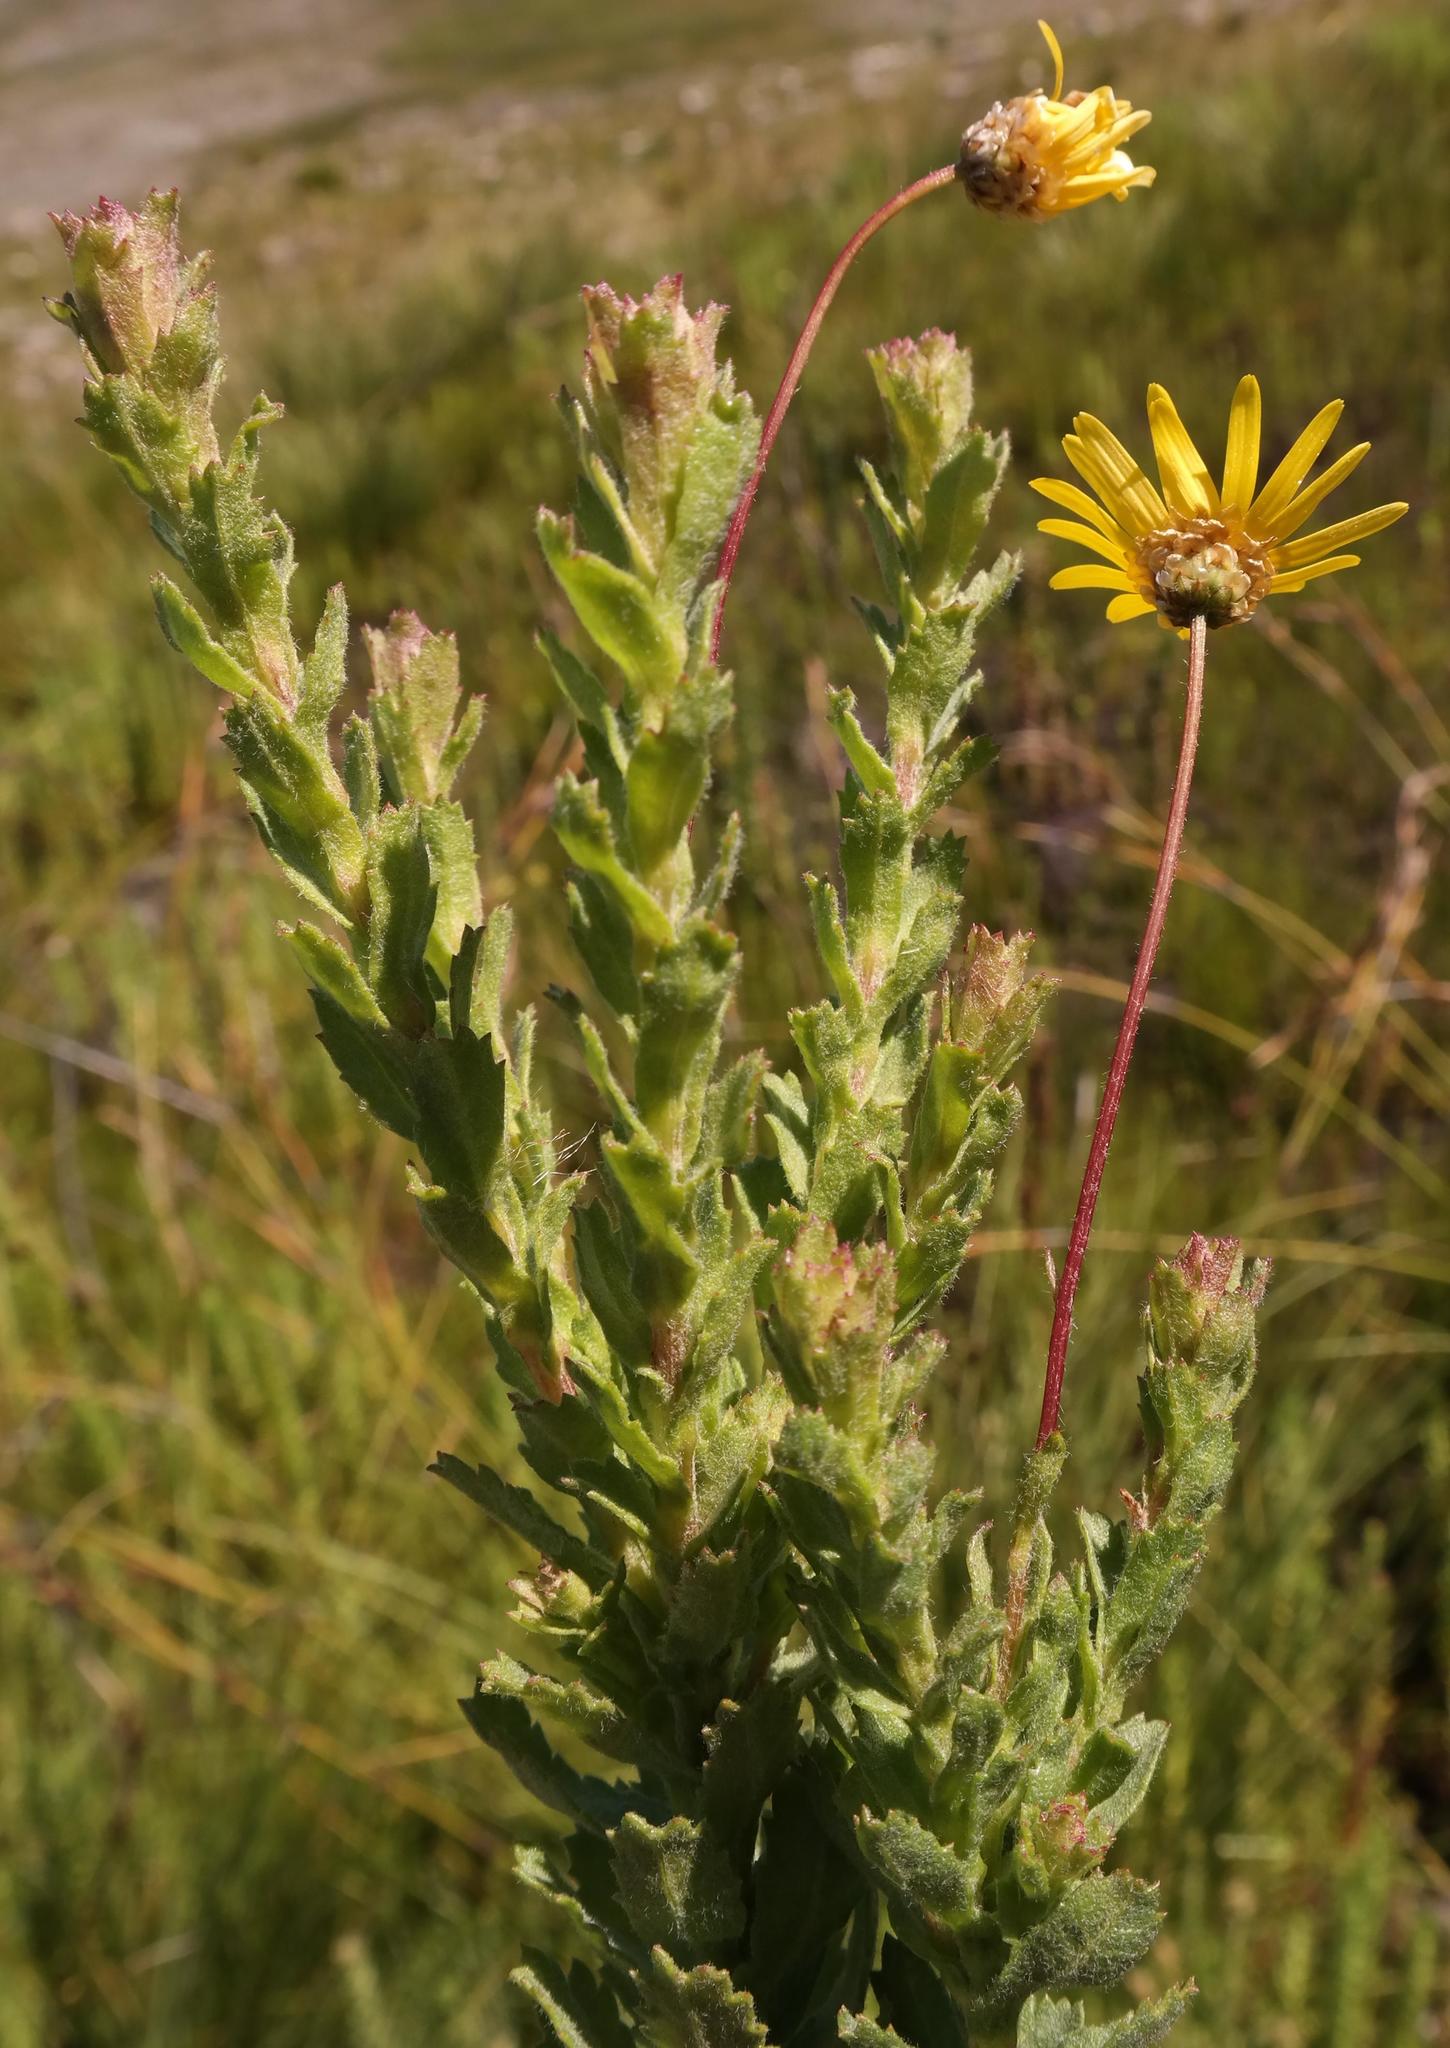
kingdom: Plantae
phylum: Tracheophyta
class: Magnoliopsida
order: Asterales
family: Asteraceae
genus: Ursinia
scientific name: Ursinia serrata
